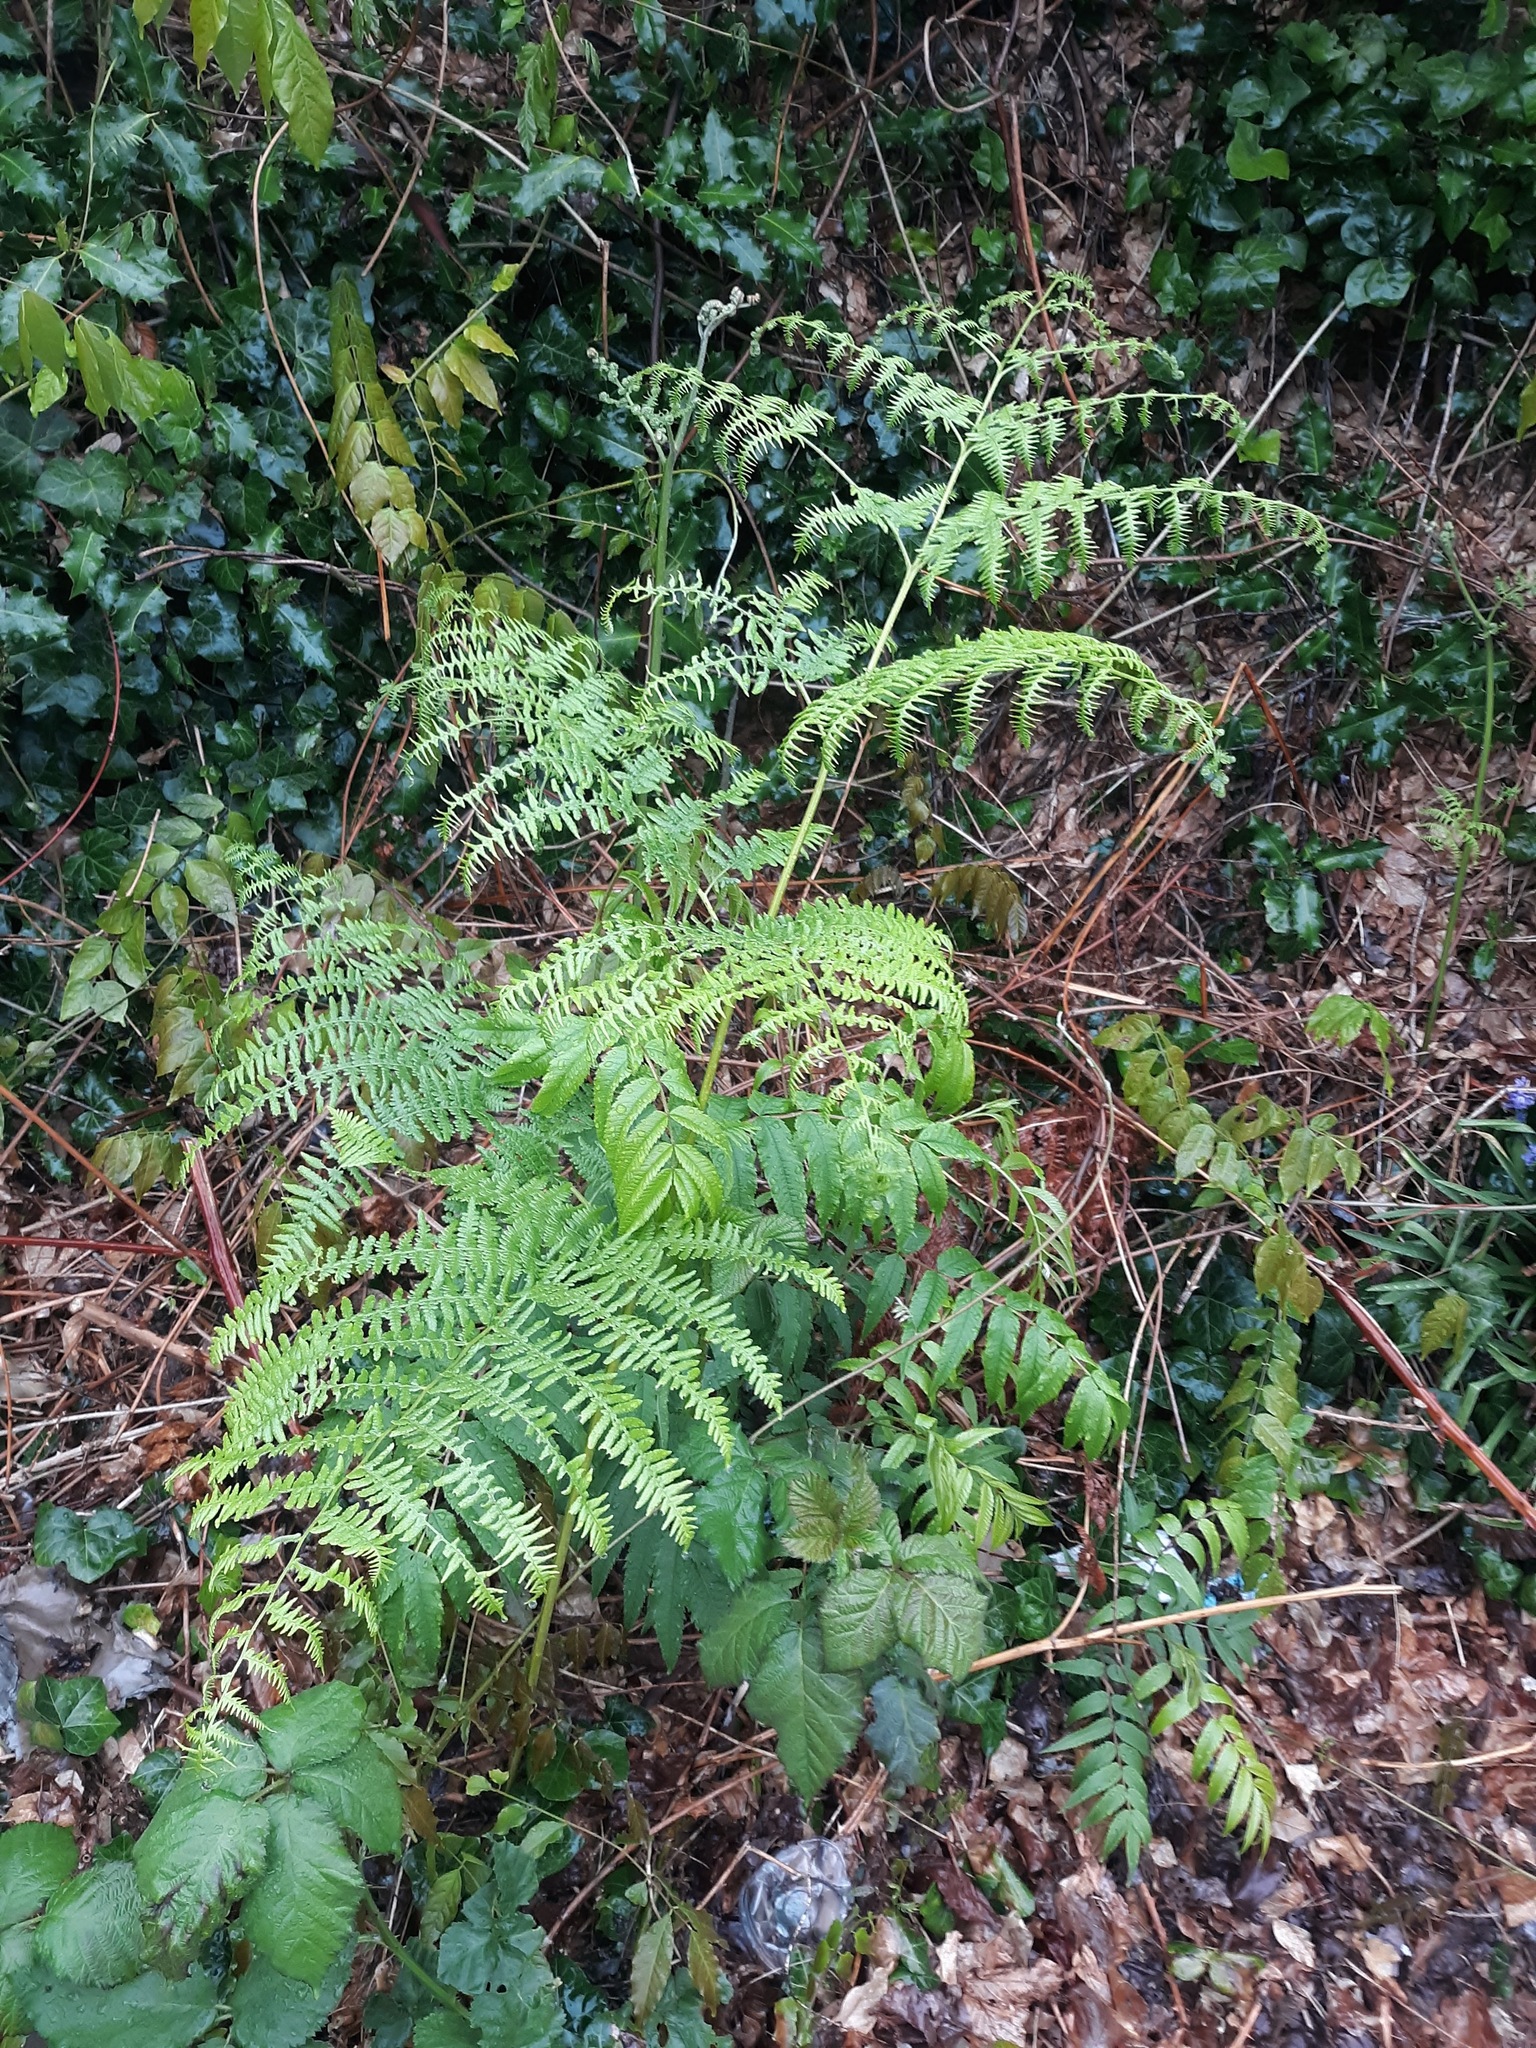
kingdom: Plantae
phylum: Tracheophyta
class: Polypodiopsida
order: Polypodiales
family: Dennstaedtiaceae
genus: Pteridium
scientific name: Pteridium aquilinum
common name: Bracken
